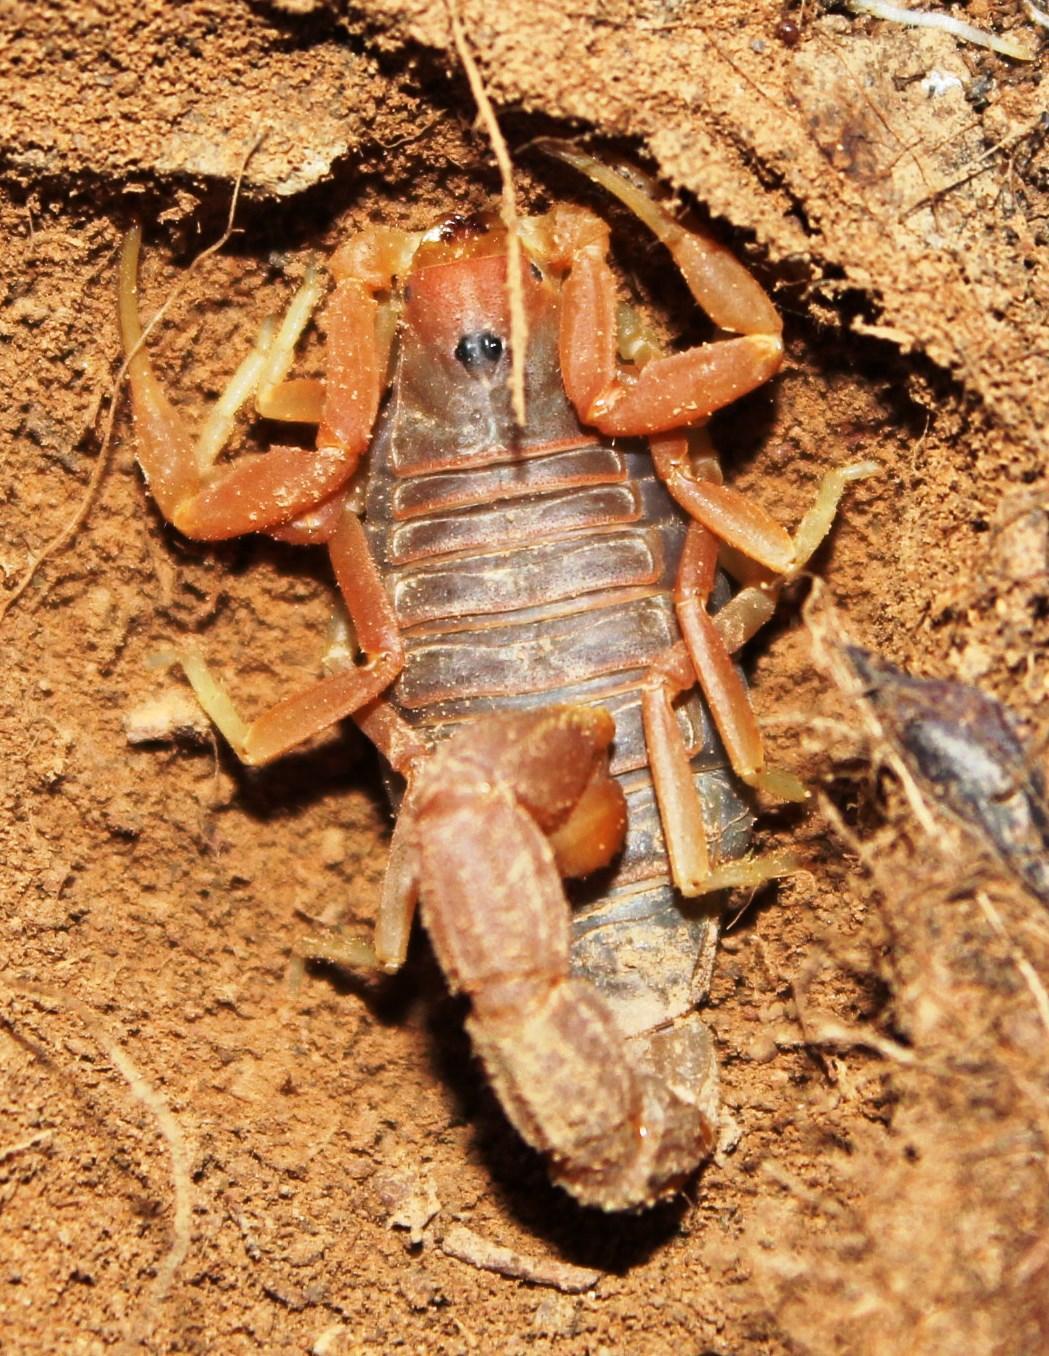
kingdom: Animalia
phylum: Arthropoda
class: Arachnida
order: Scorpiones
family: Buthidae
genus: Parabuthus
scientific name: Parabuthus planicauda
